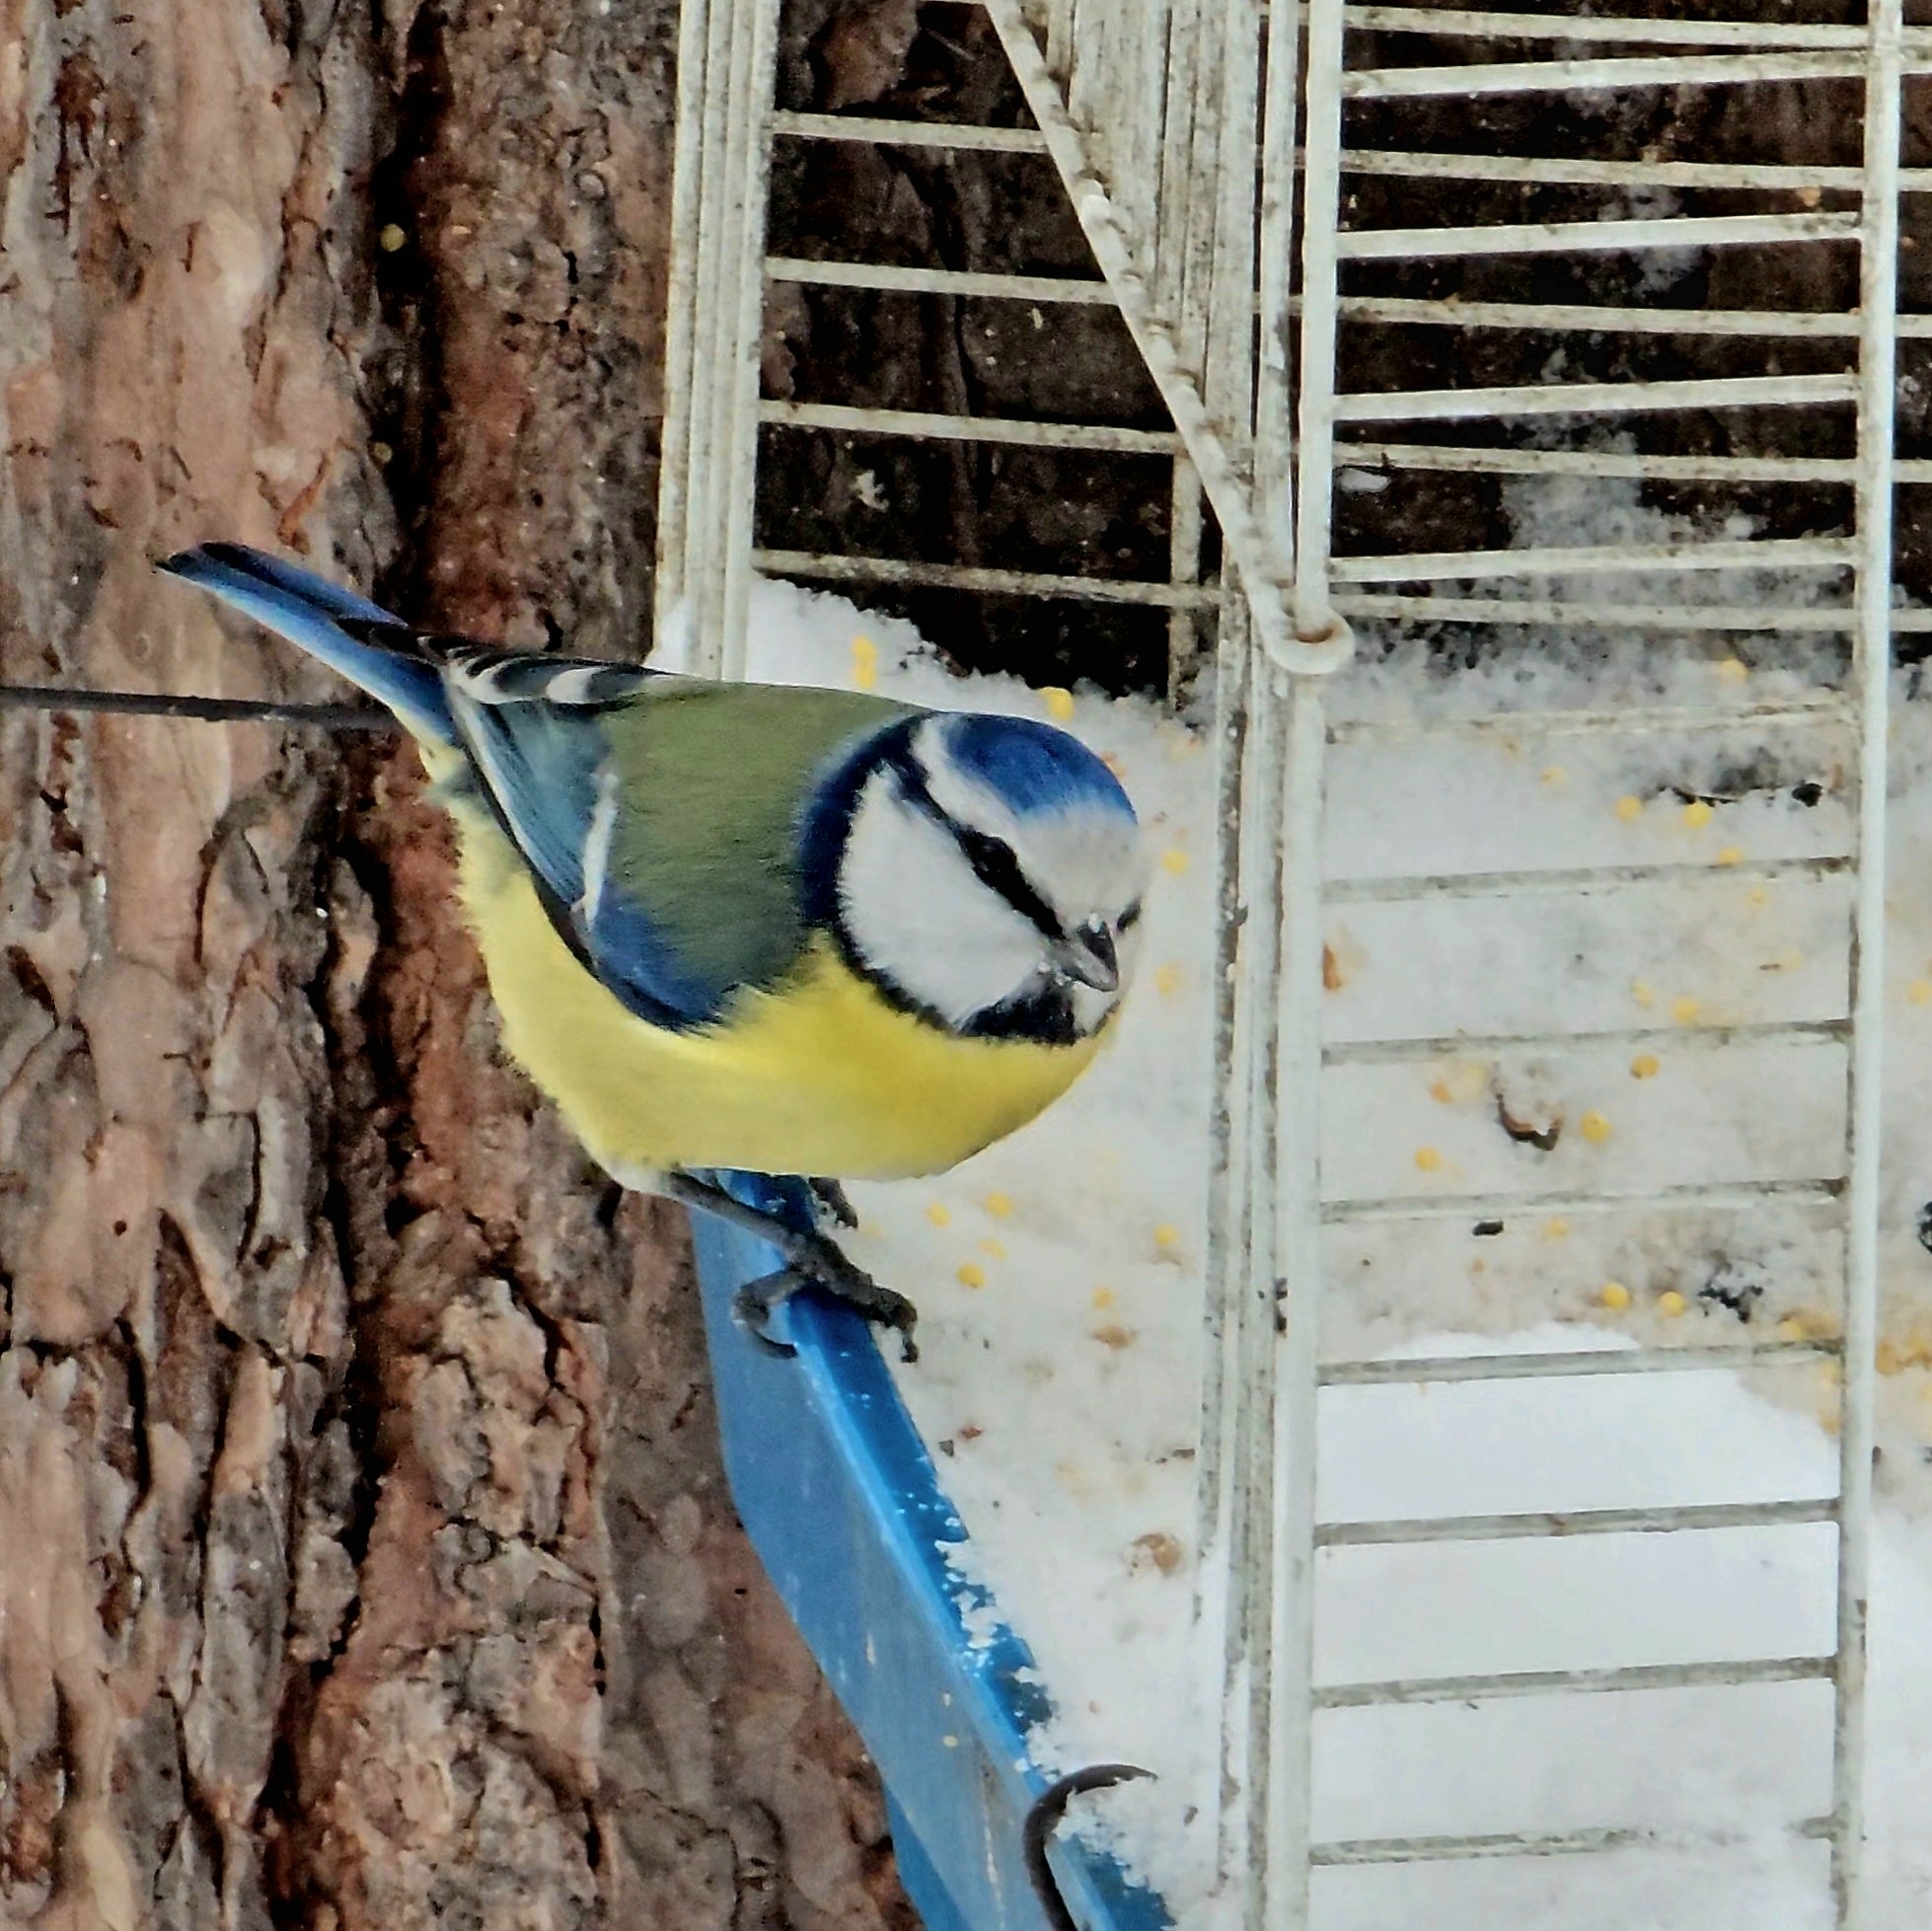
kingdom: Animalia
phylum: Chordata
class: Aves
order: Passeriformes
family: Paridae
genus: Cyanistes
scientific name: Cyanistes caeruleus
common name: Eurasian blue tit
